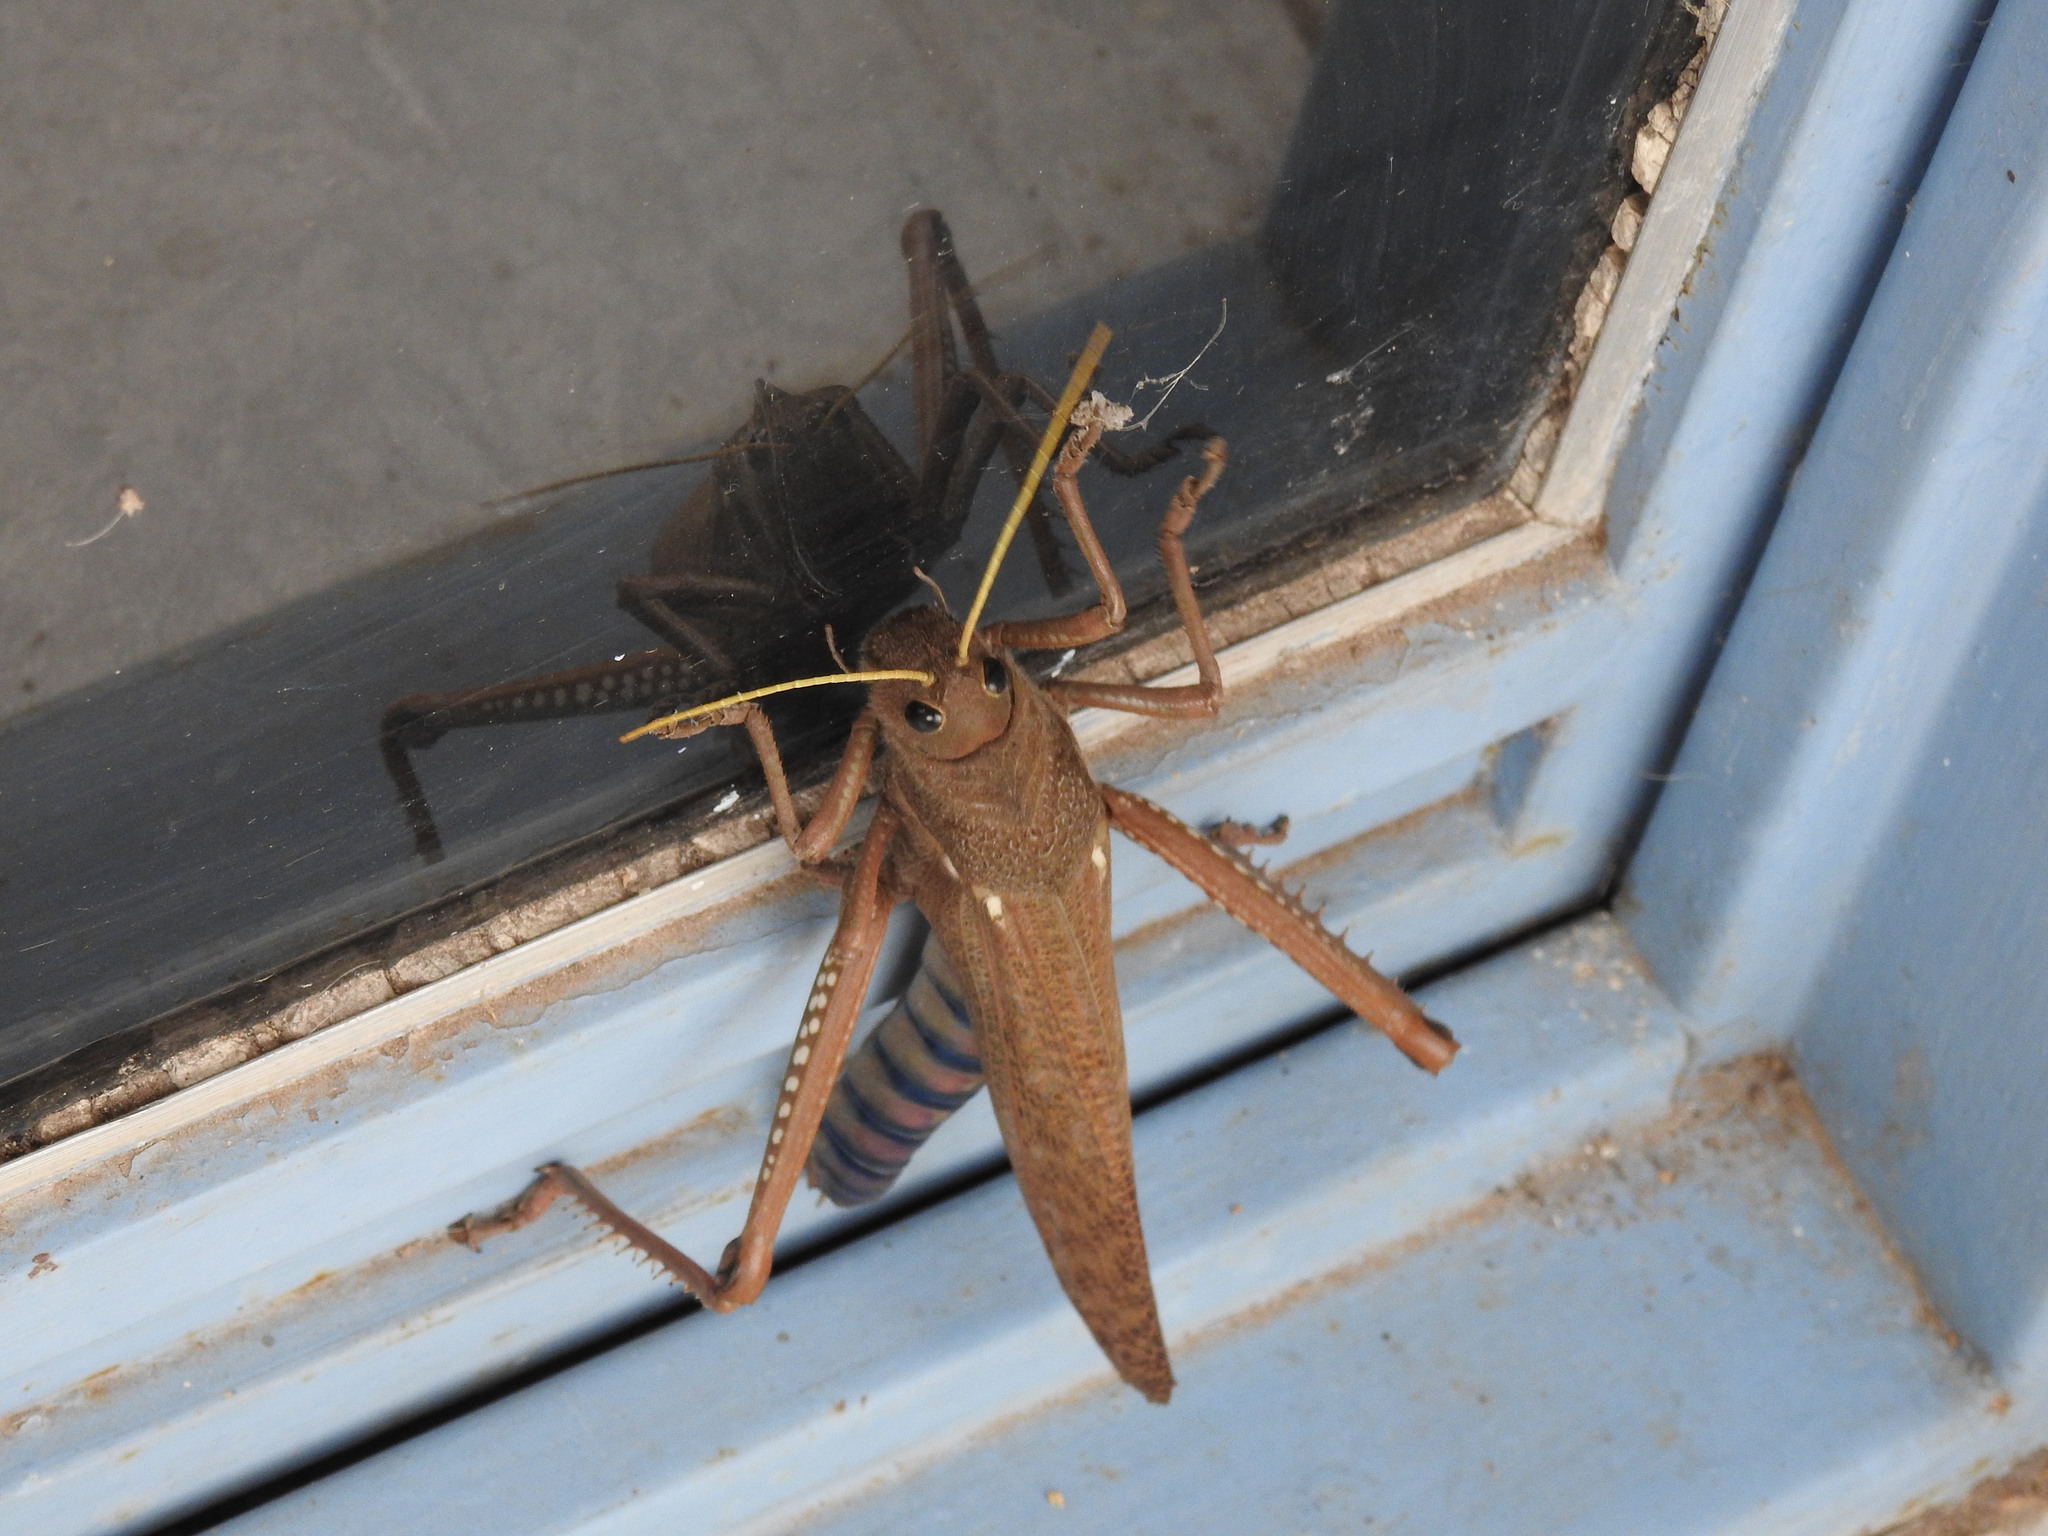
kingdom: Animalia
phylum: Arthropoda
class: Insecta
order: Orthoptera
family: Romaleidae
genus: Tropidacris
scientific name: Tropidacris collaris
